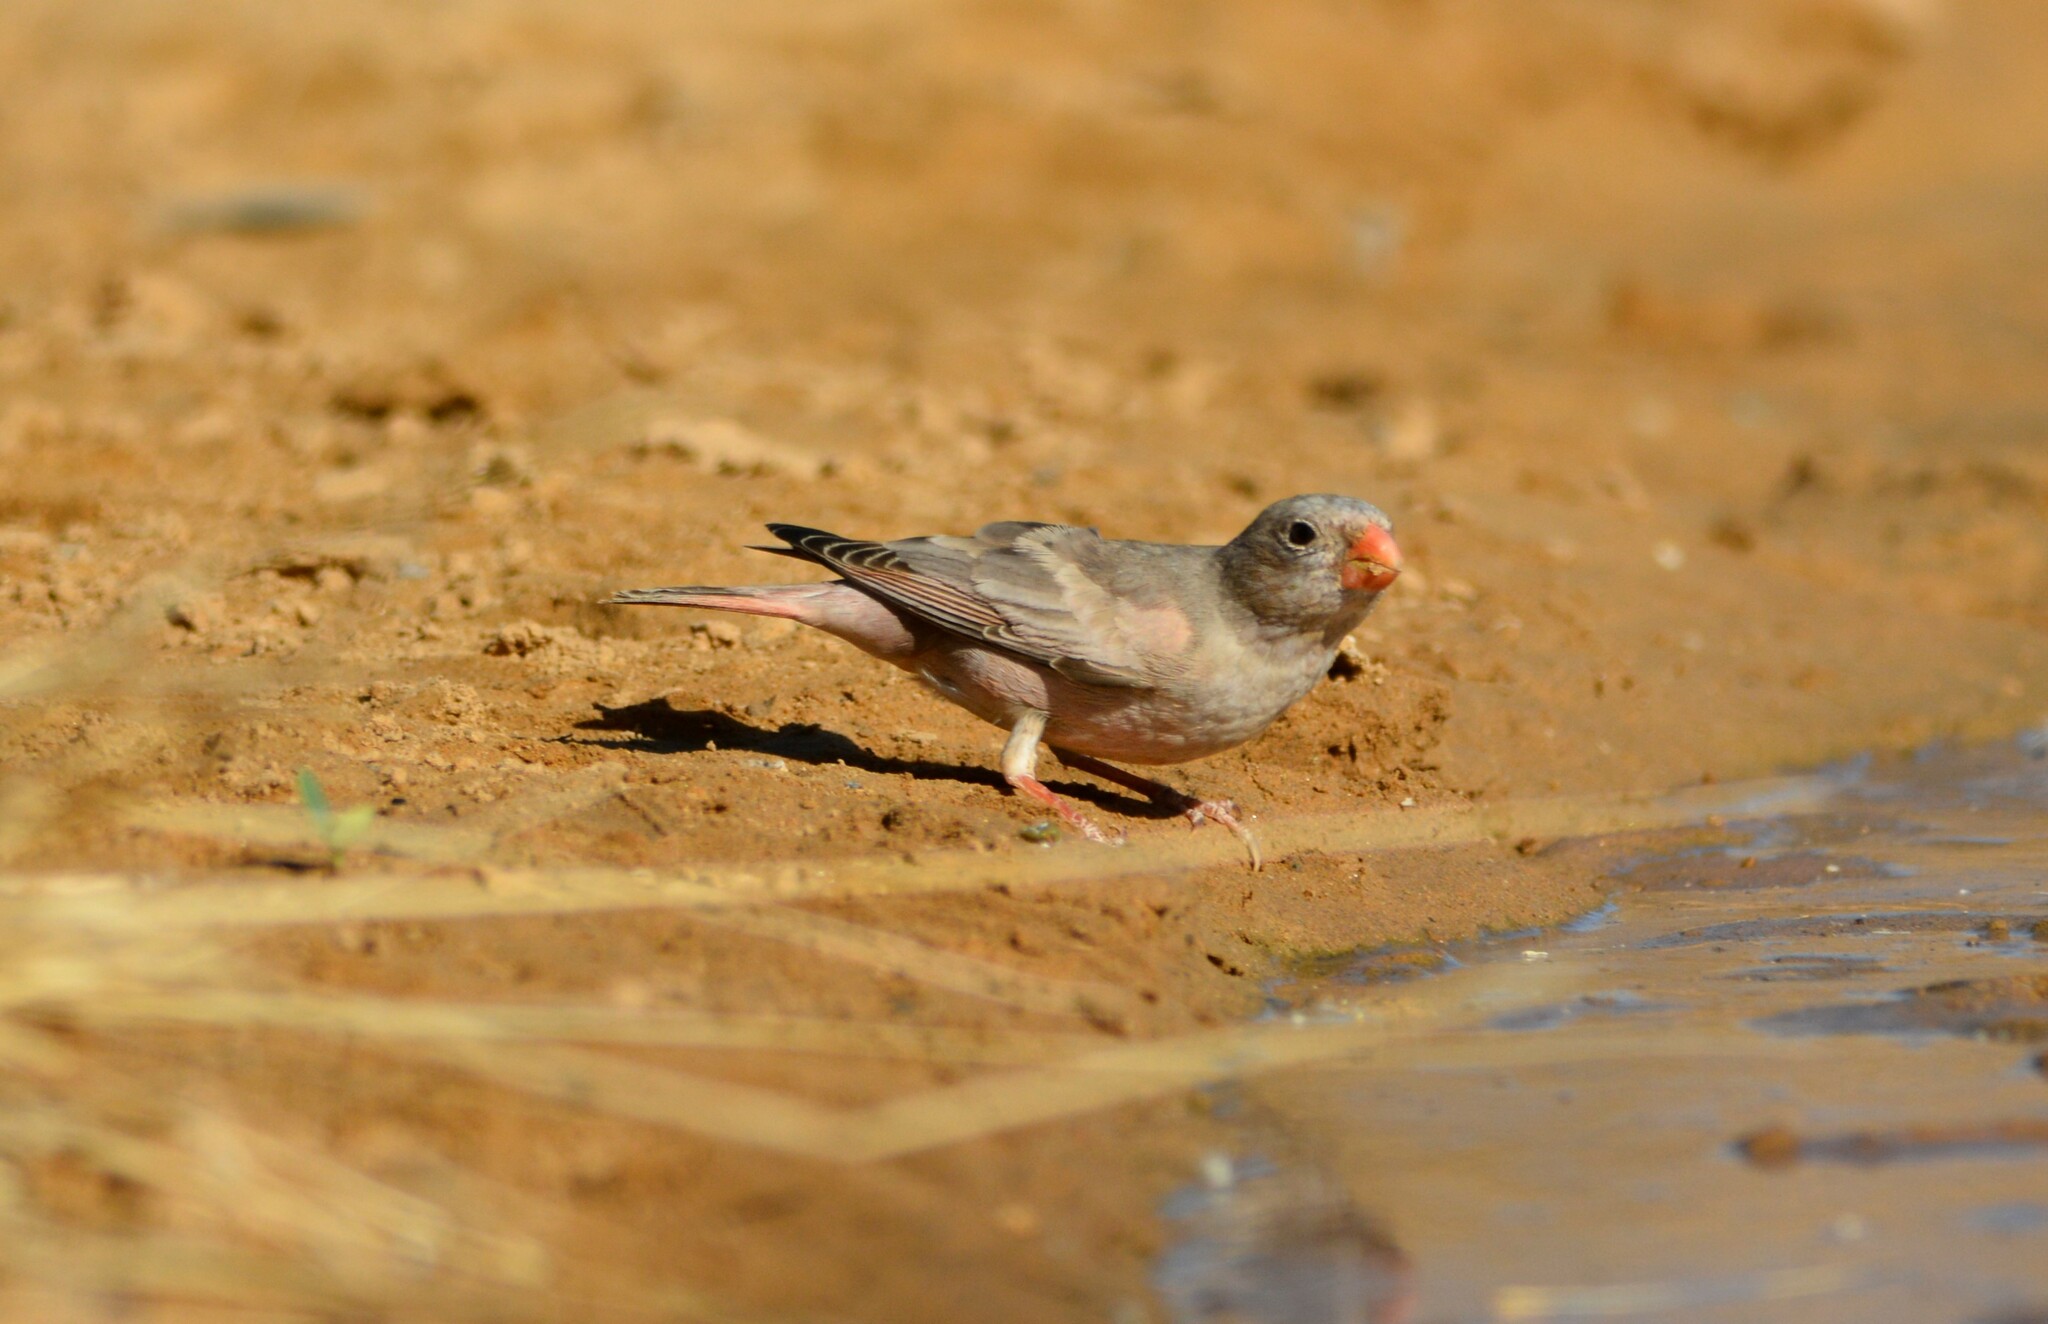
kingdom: Animalia
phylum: Chordata
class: Aves
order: Passeriformes
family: Fringillidae
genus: Bucanetes
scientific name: Bucanetes githagineus
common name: Trumpeter finch
